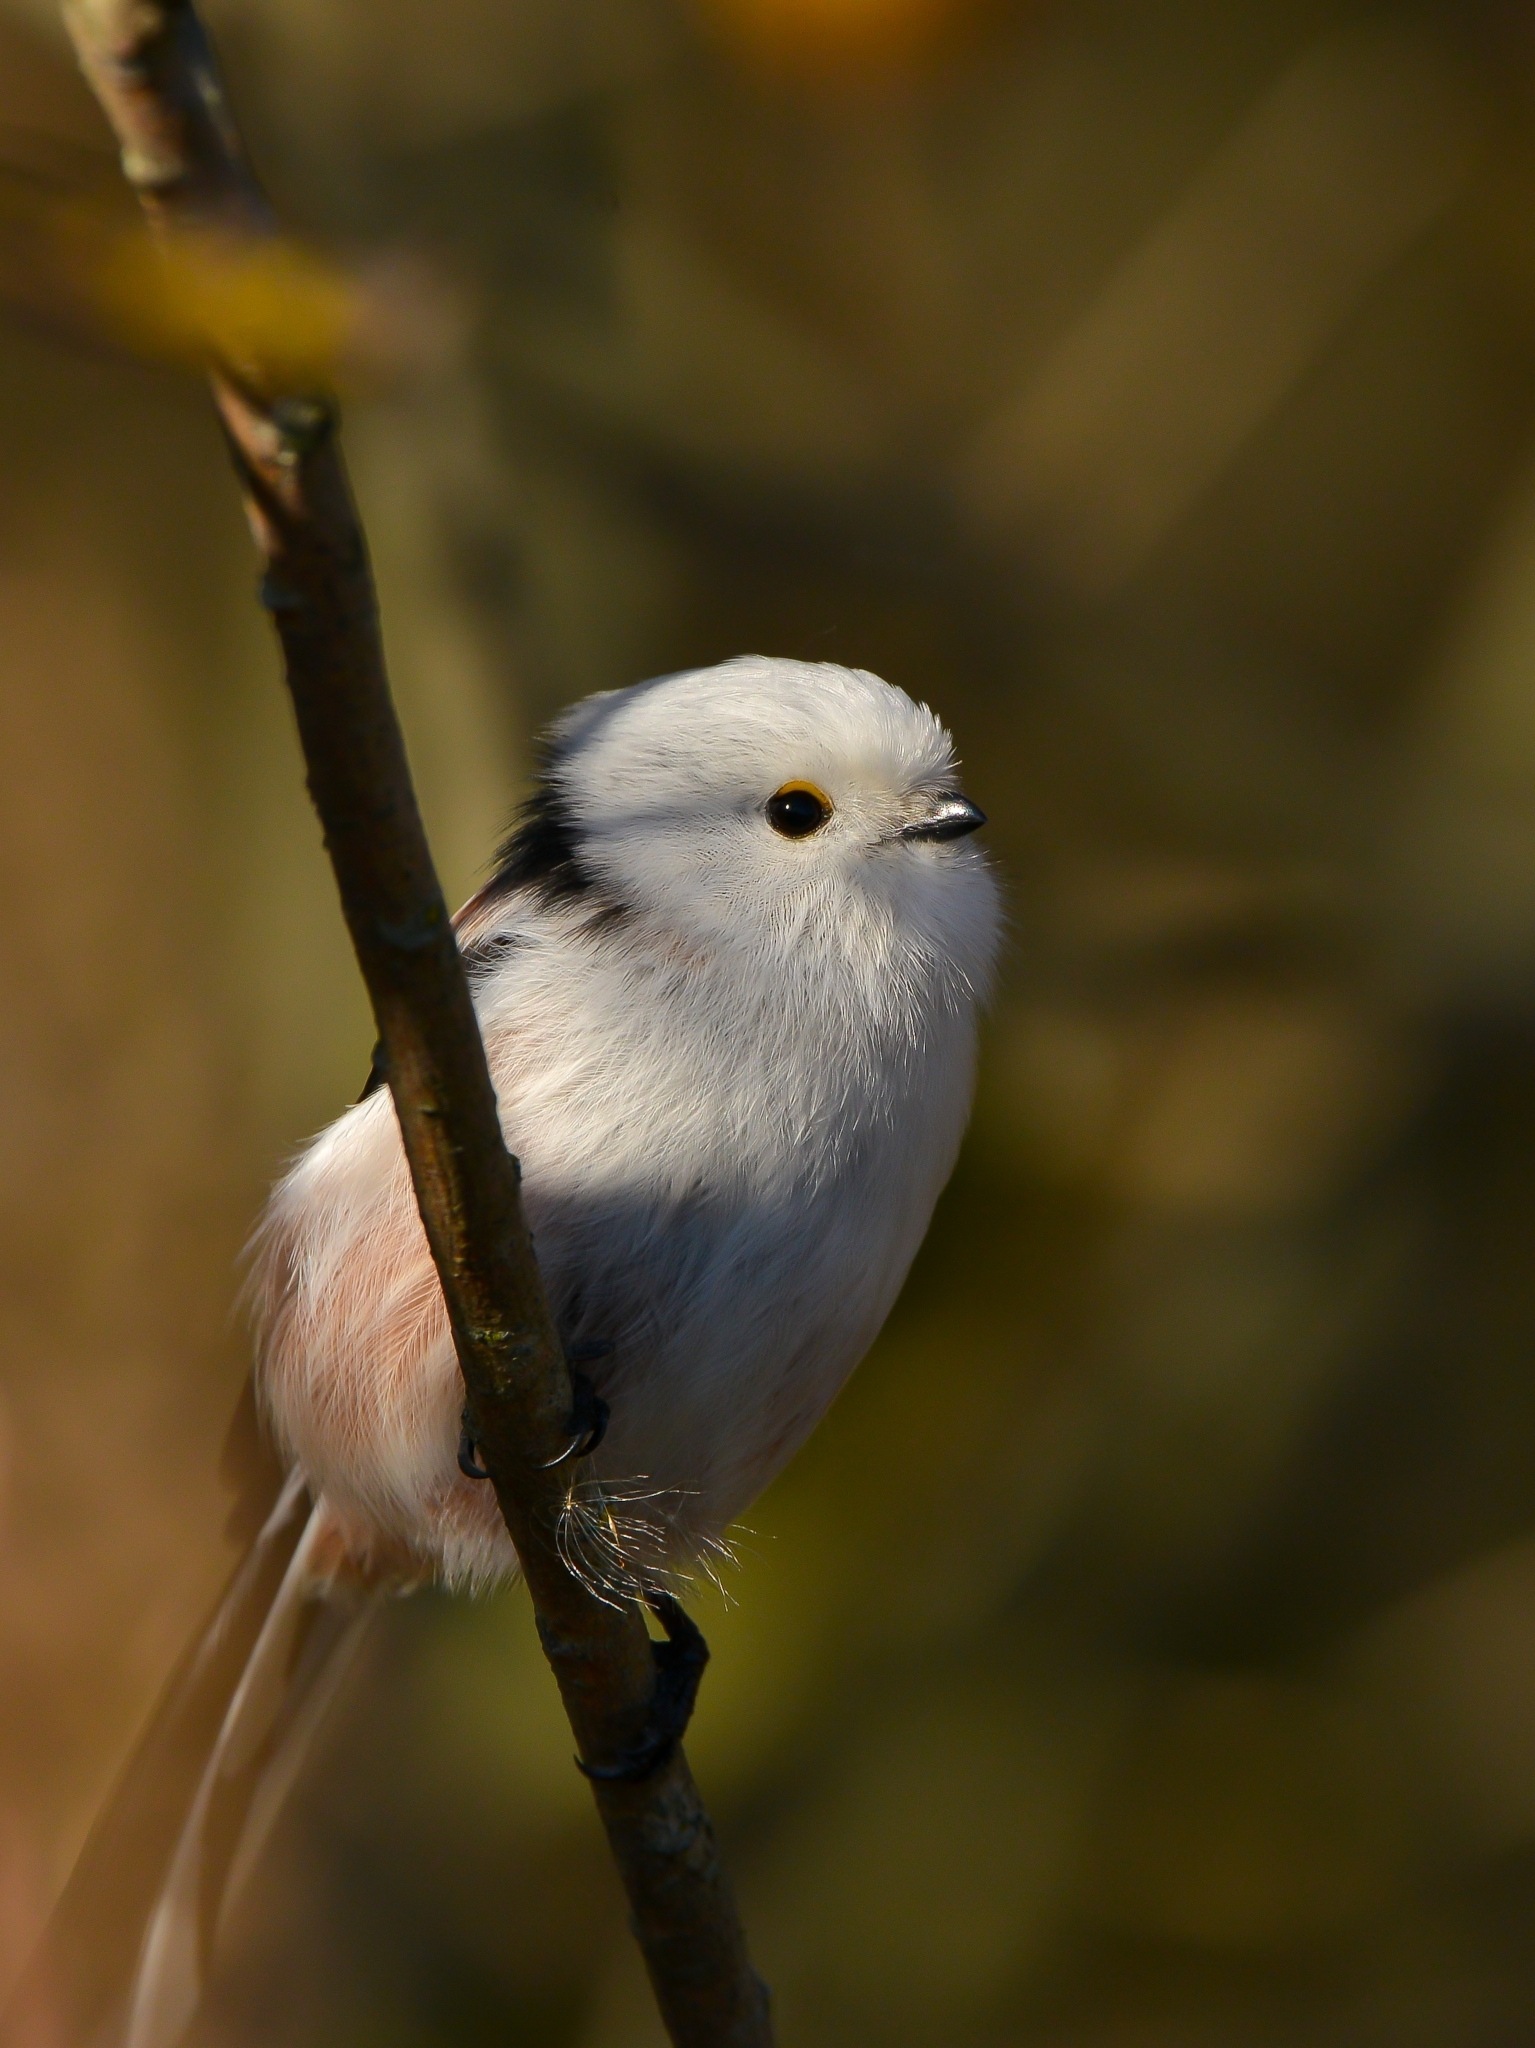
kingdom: Animalia
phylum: Chordata
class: Aves
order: Passeriformes
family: Aegithalidae
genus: Aegithalos
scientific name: Aegithalos caudatus
